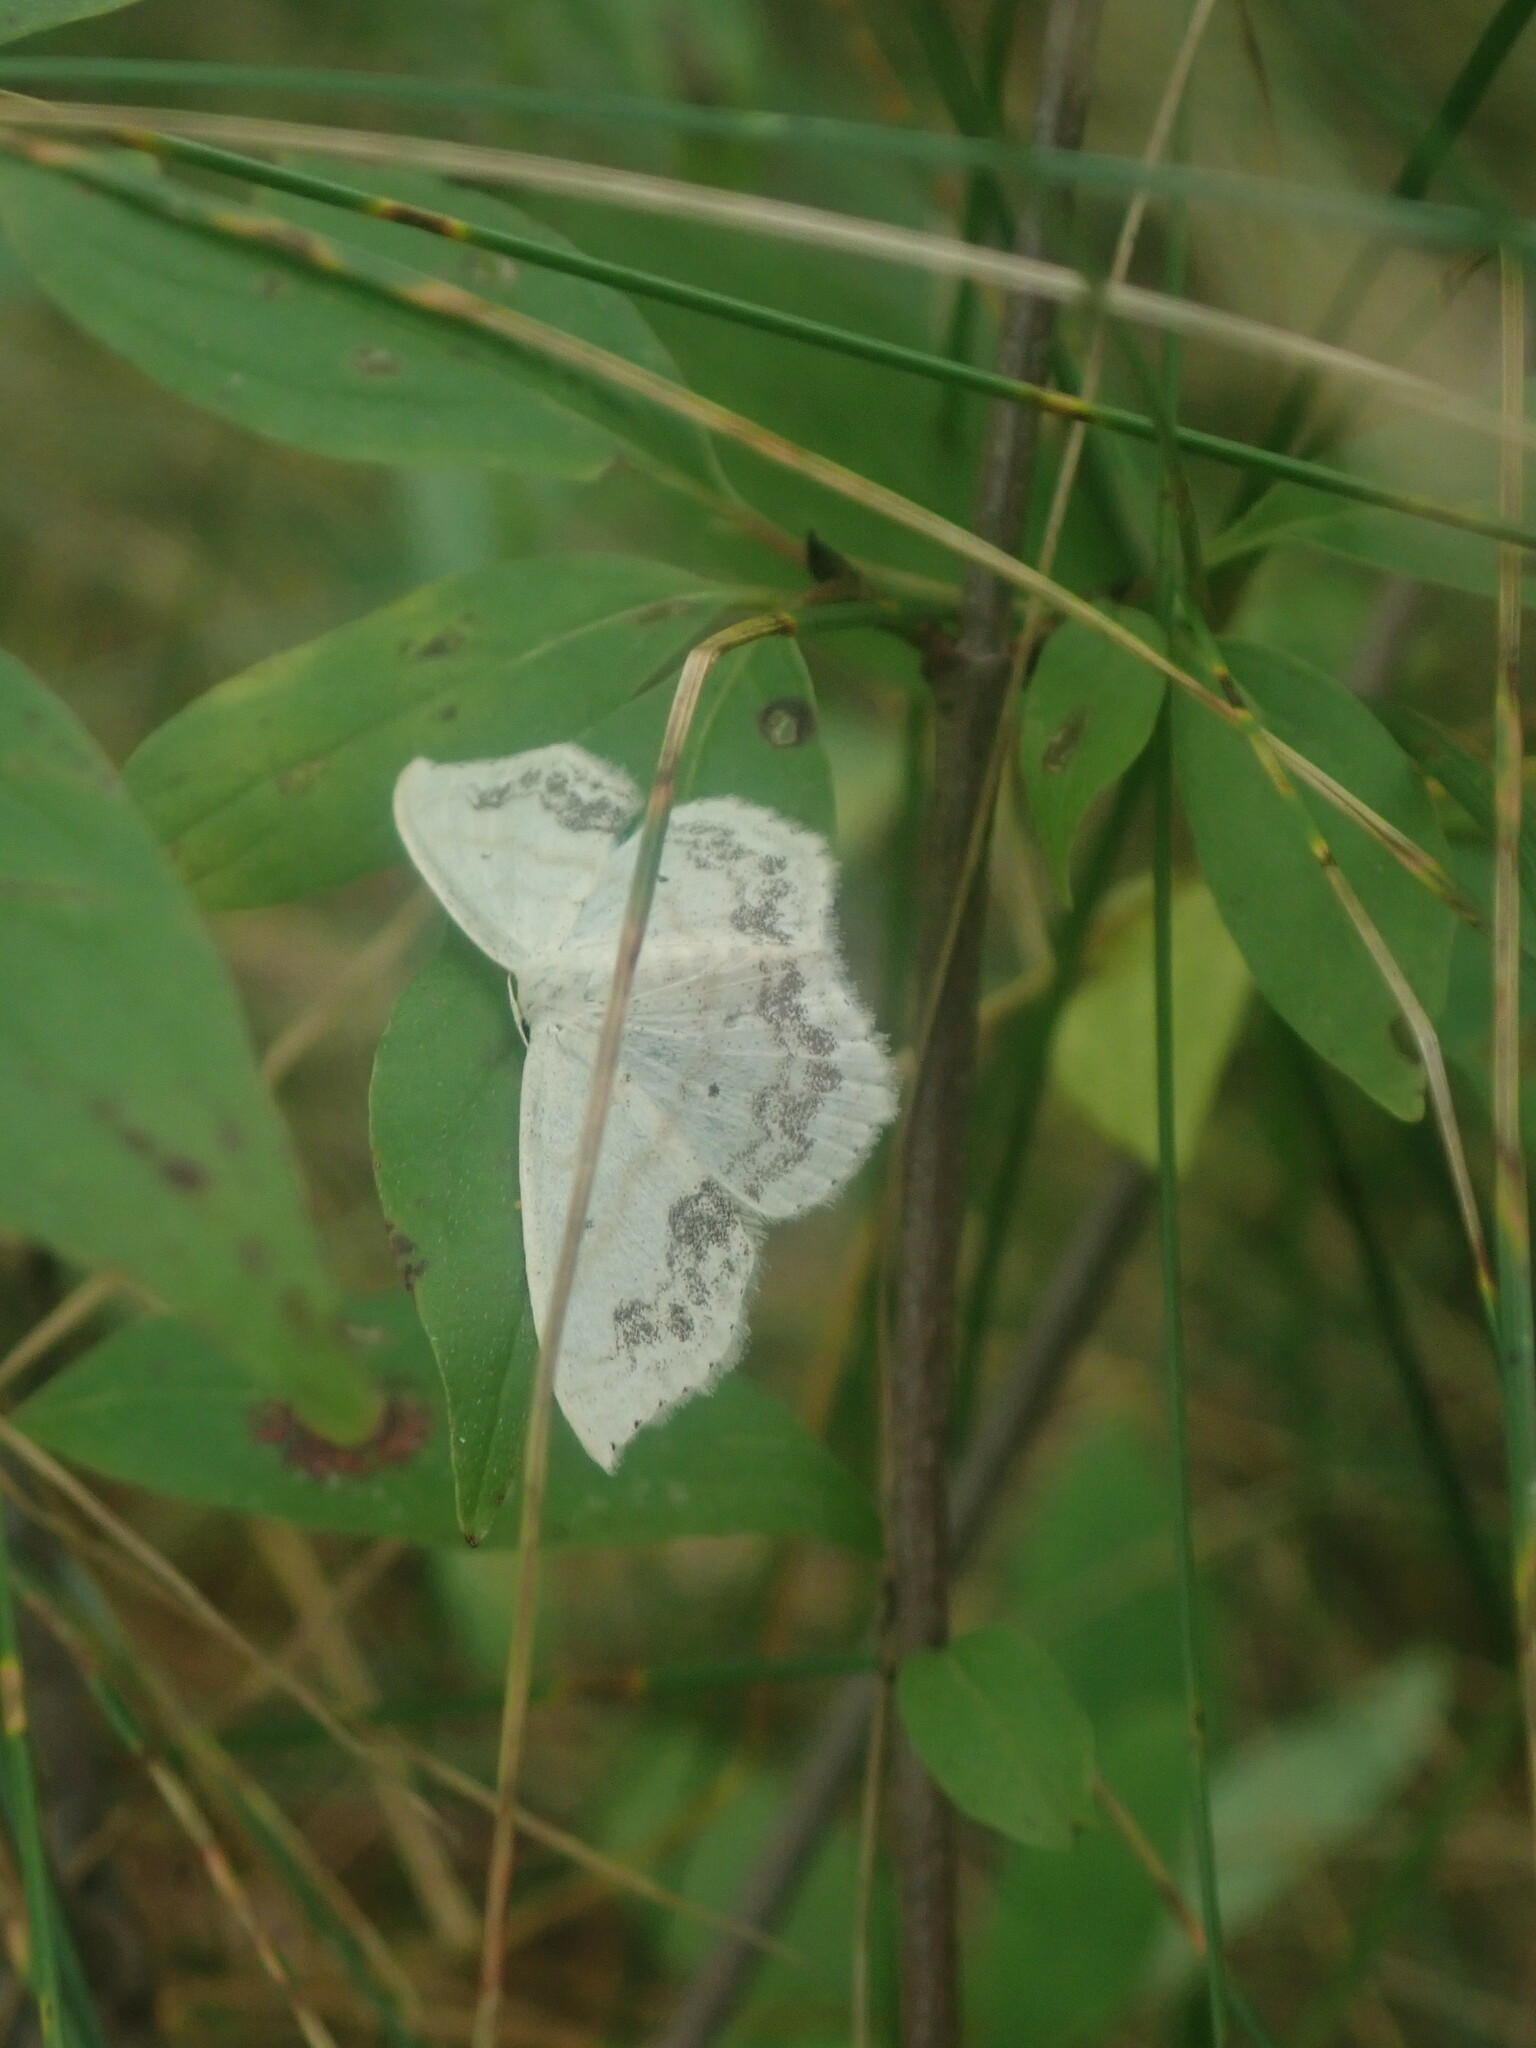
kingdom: Animalia
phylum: Arthropoda
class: Insecta
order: Lepidoptera
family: Geometridae
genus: Scopula
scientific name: Scopula limboundata
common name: Large lace border
